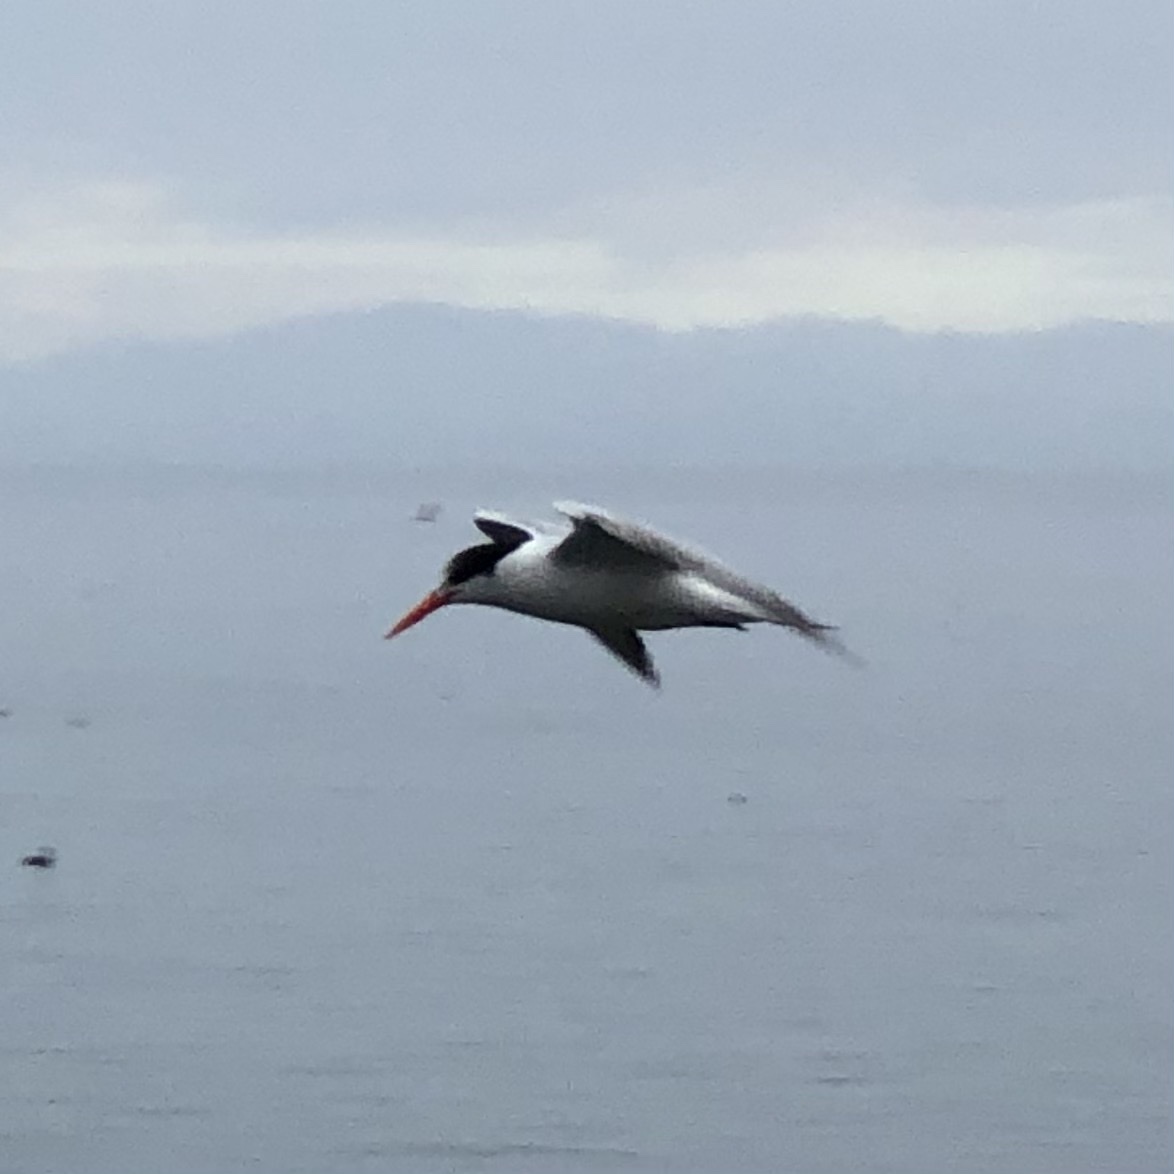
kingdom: Animalia
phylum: Chordata
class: Aves
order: Charadriiformes
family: Laridae
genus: Thalasseus
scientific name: Thalasseus elegans
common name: Elegant tern
